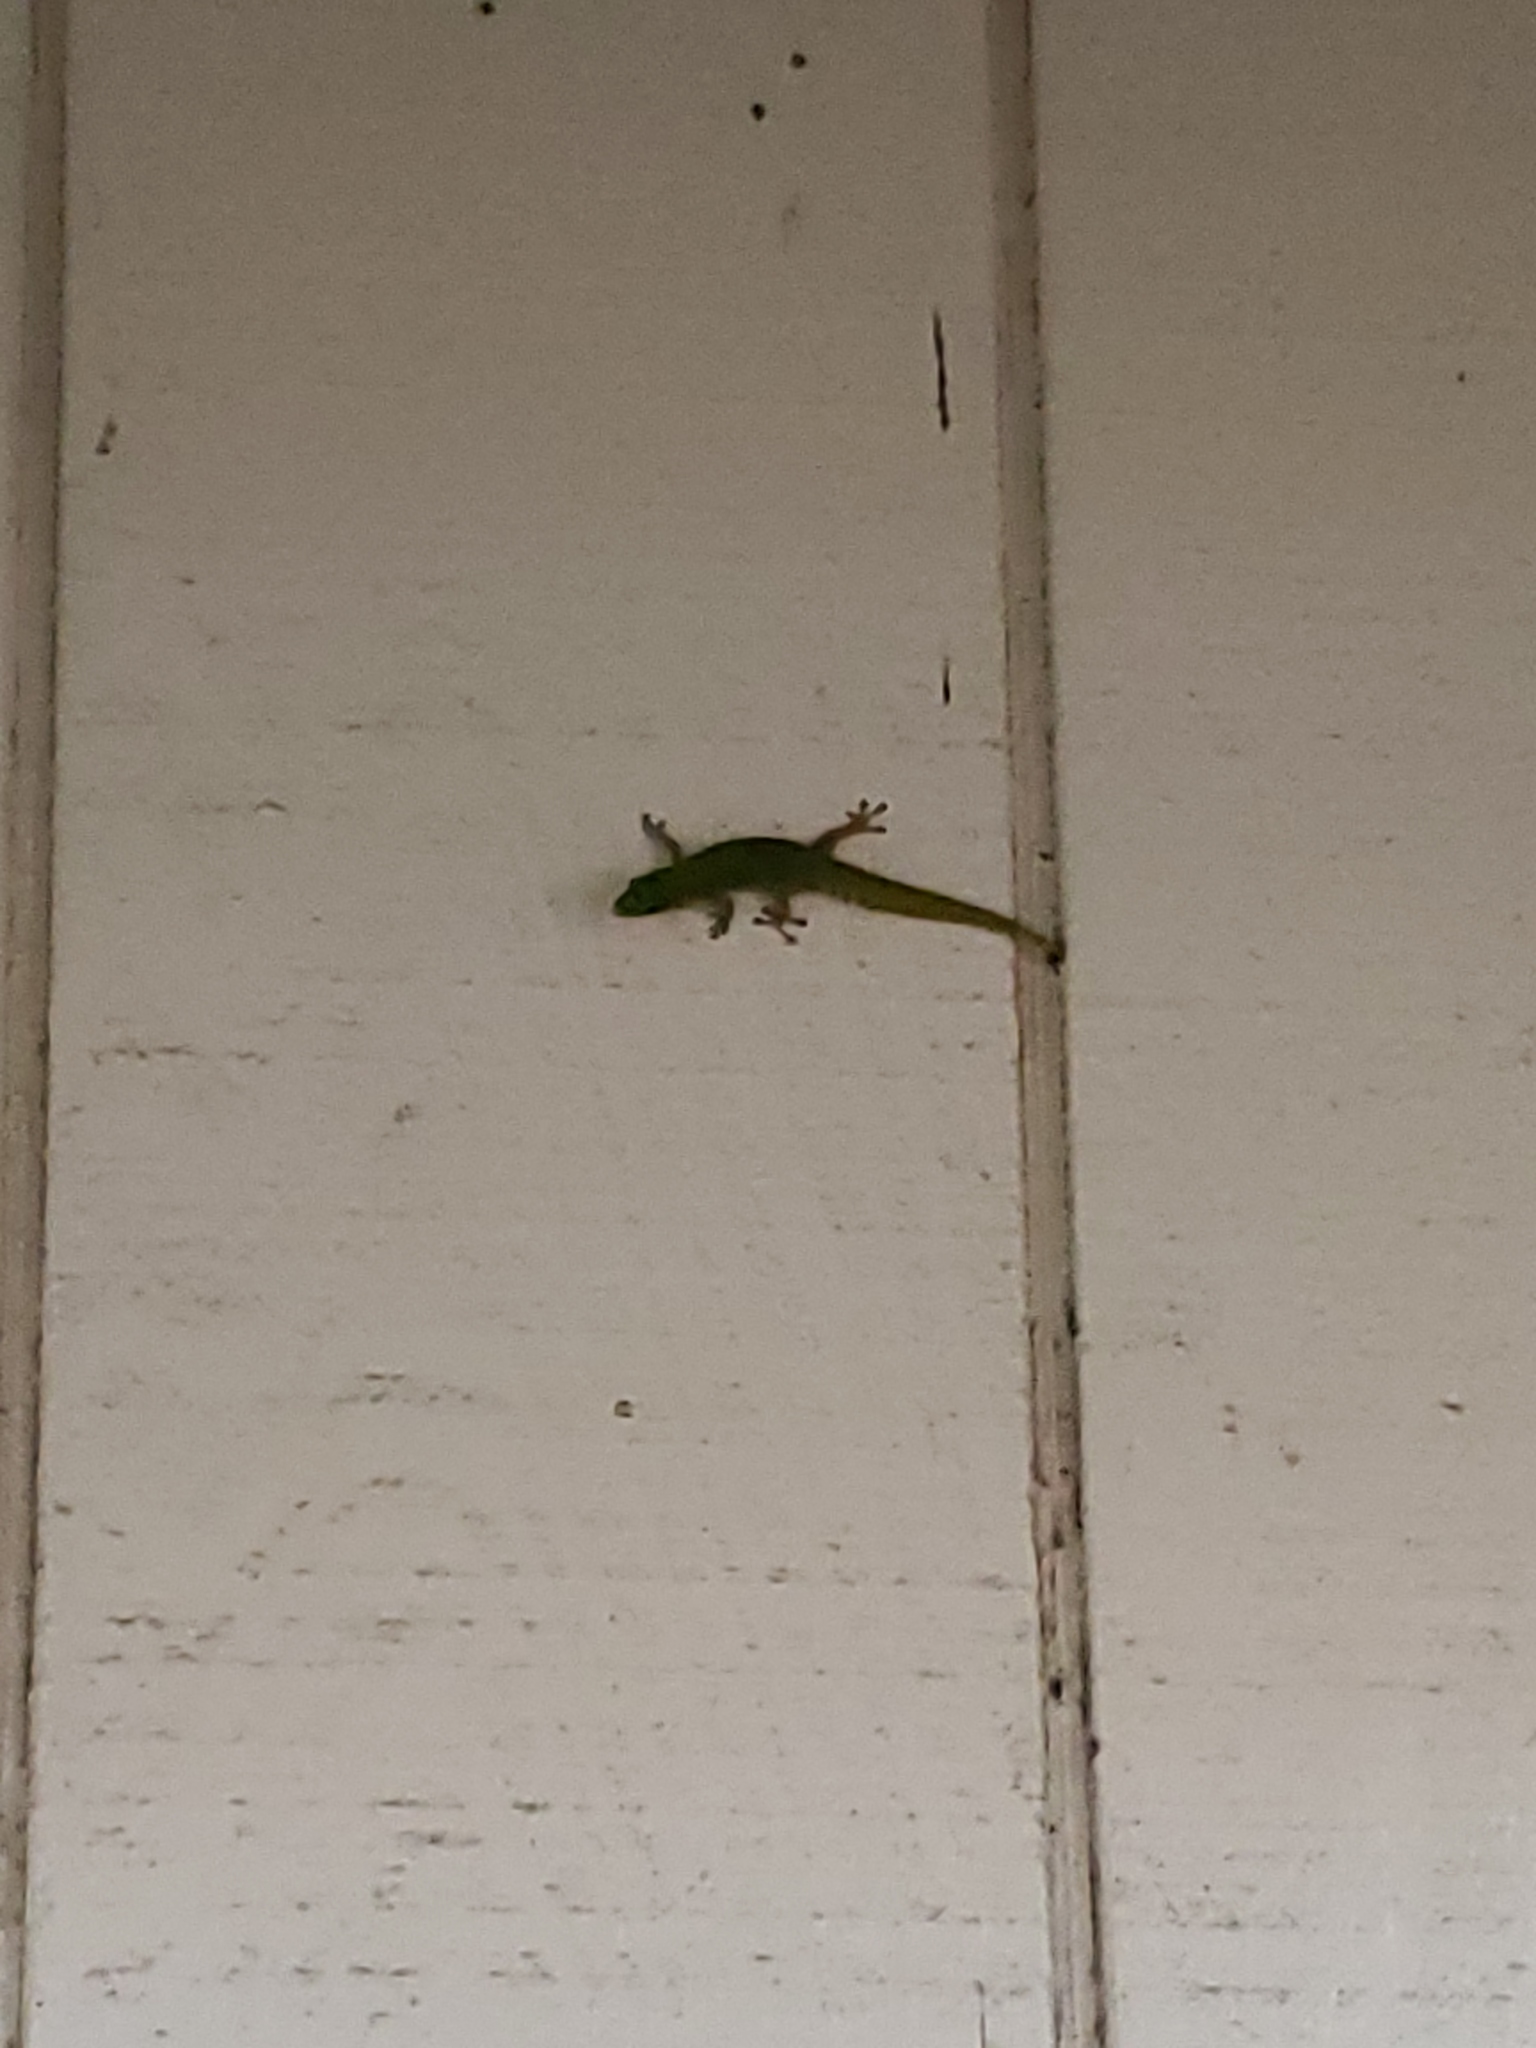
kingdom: Animalia
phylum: Chordata
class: Squamata
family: Gekkonidae
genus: Phelsuma
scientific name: Phelsuma laticauda
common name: Gold dust day gecko
